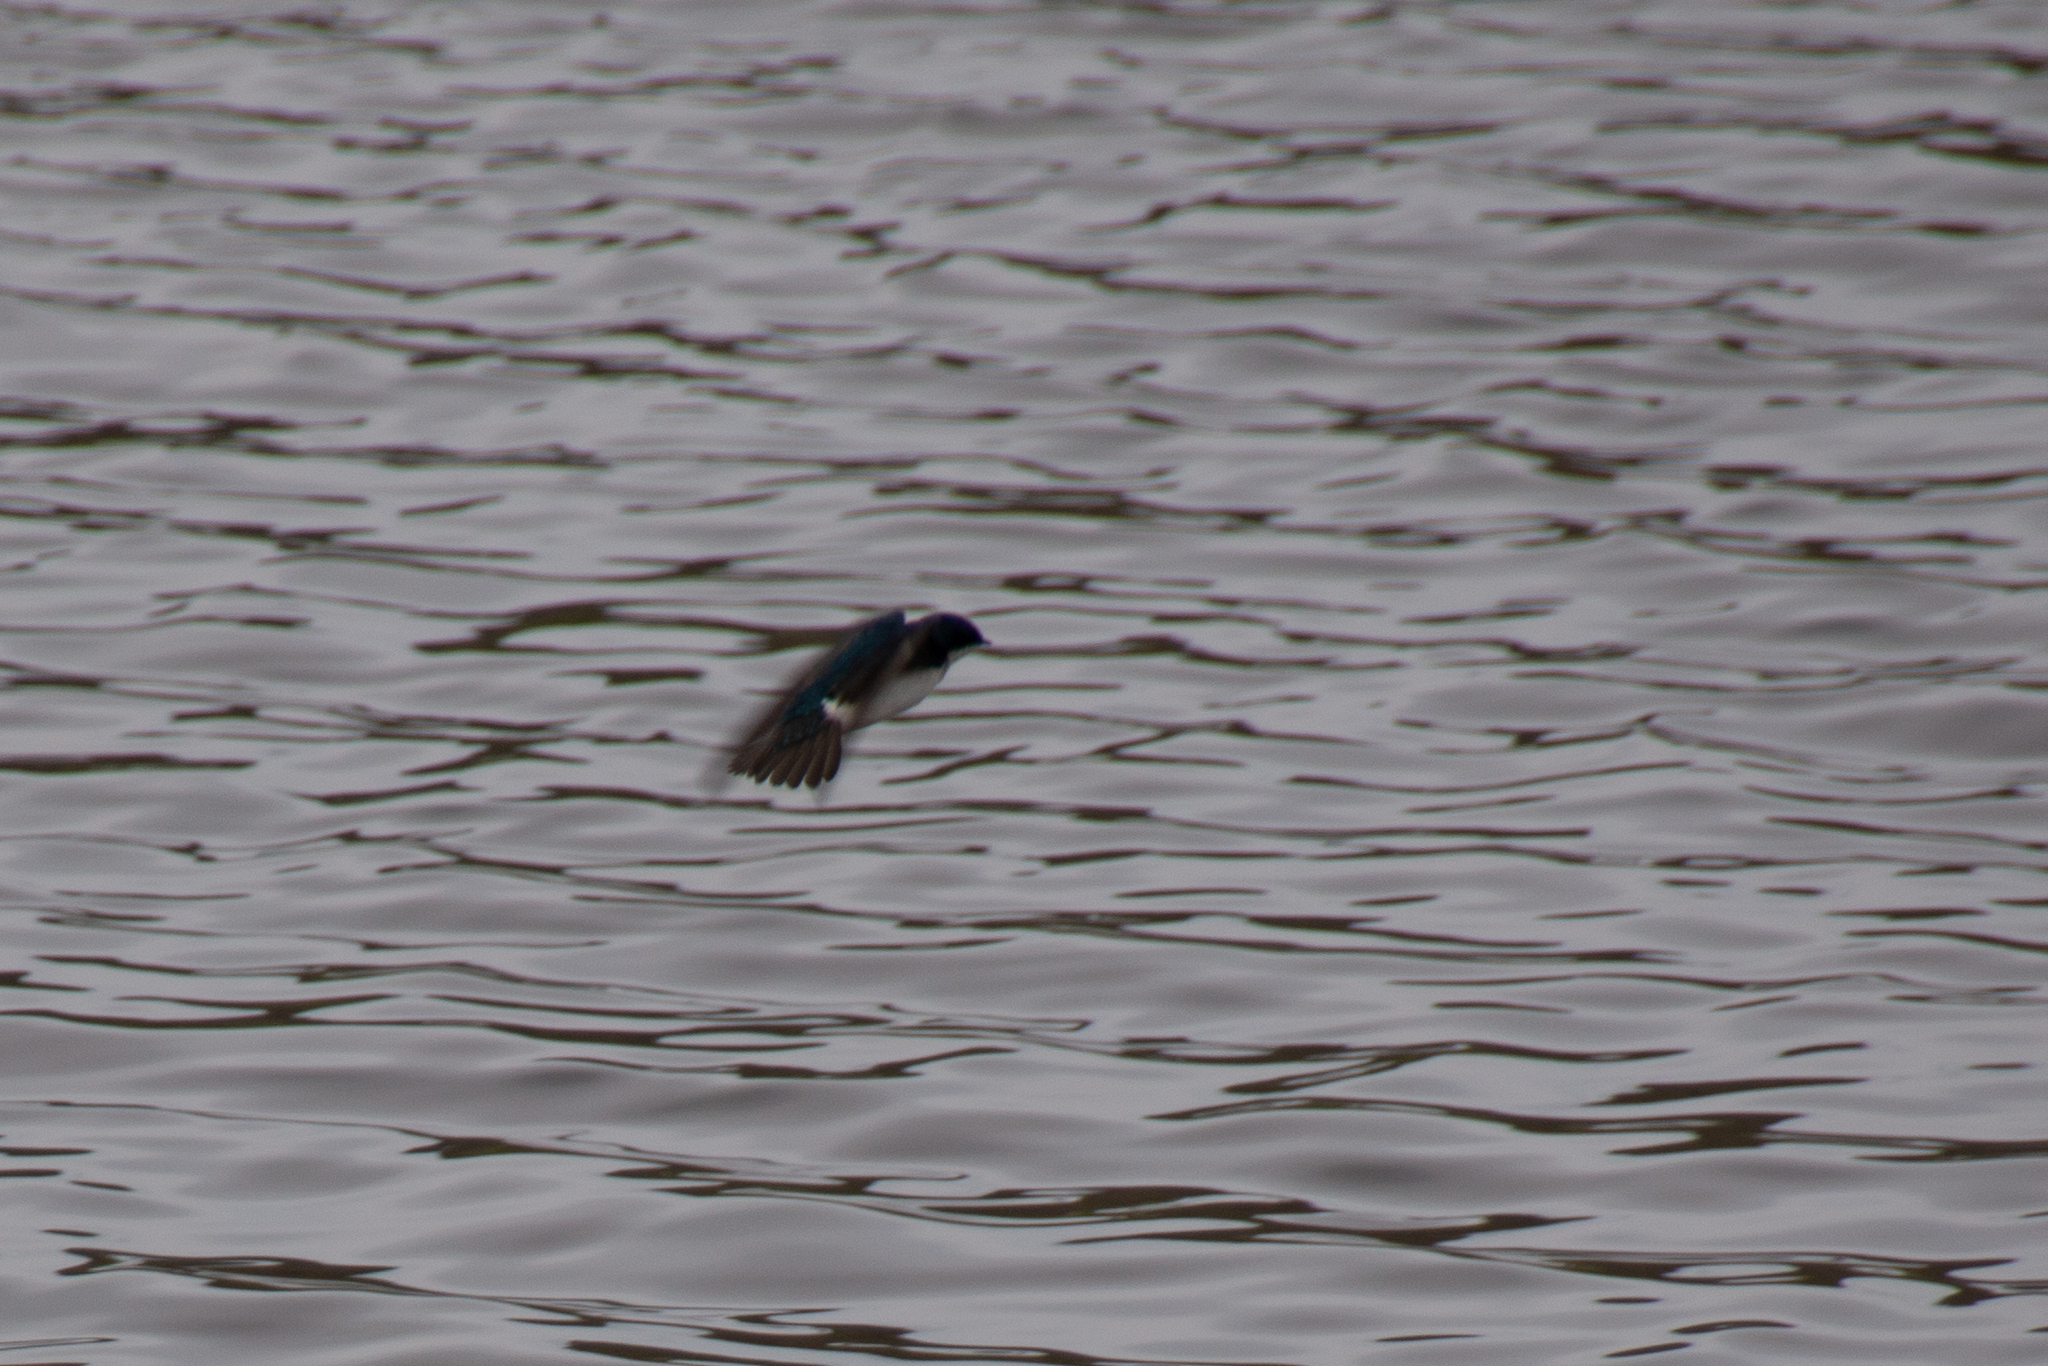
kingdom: Animalia
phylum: Chordata
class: Aves
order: Passeriformes
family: Hirundinidae
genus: Tachycineta
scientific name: Tachycineta bicolor
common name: Tree swallow
